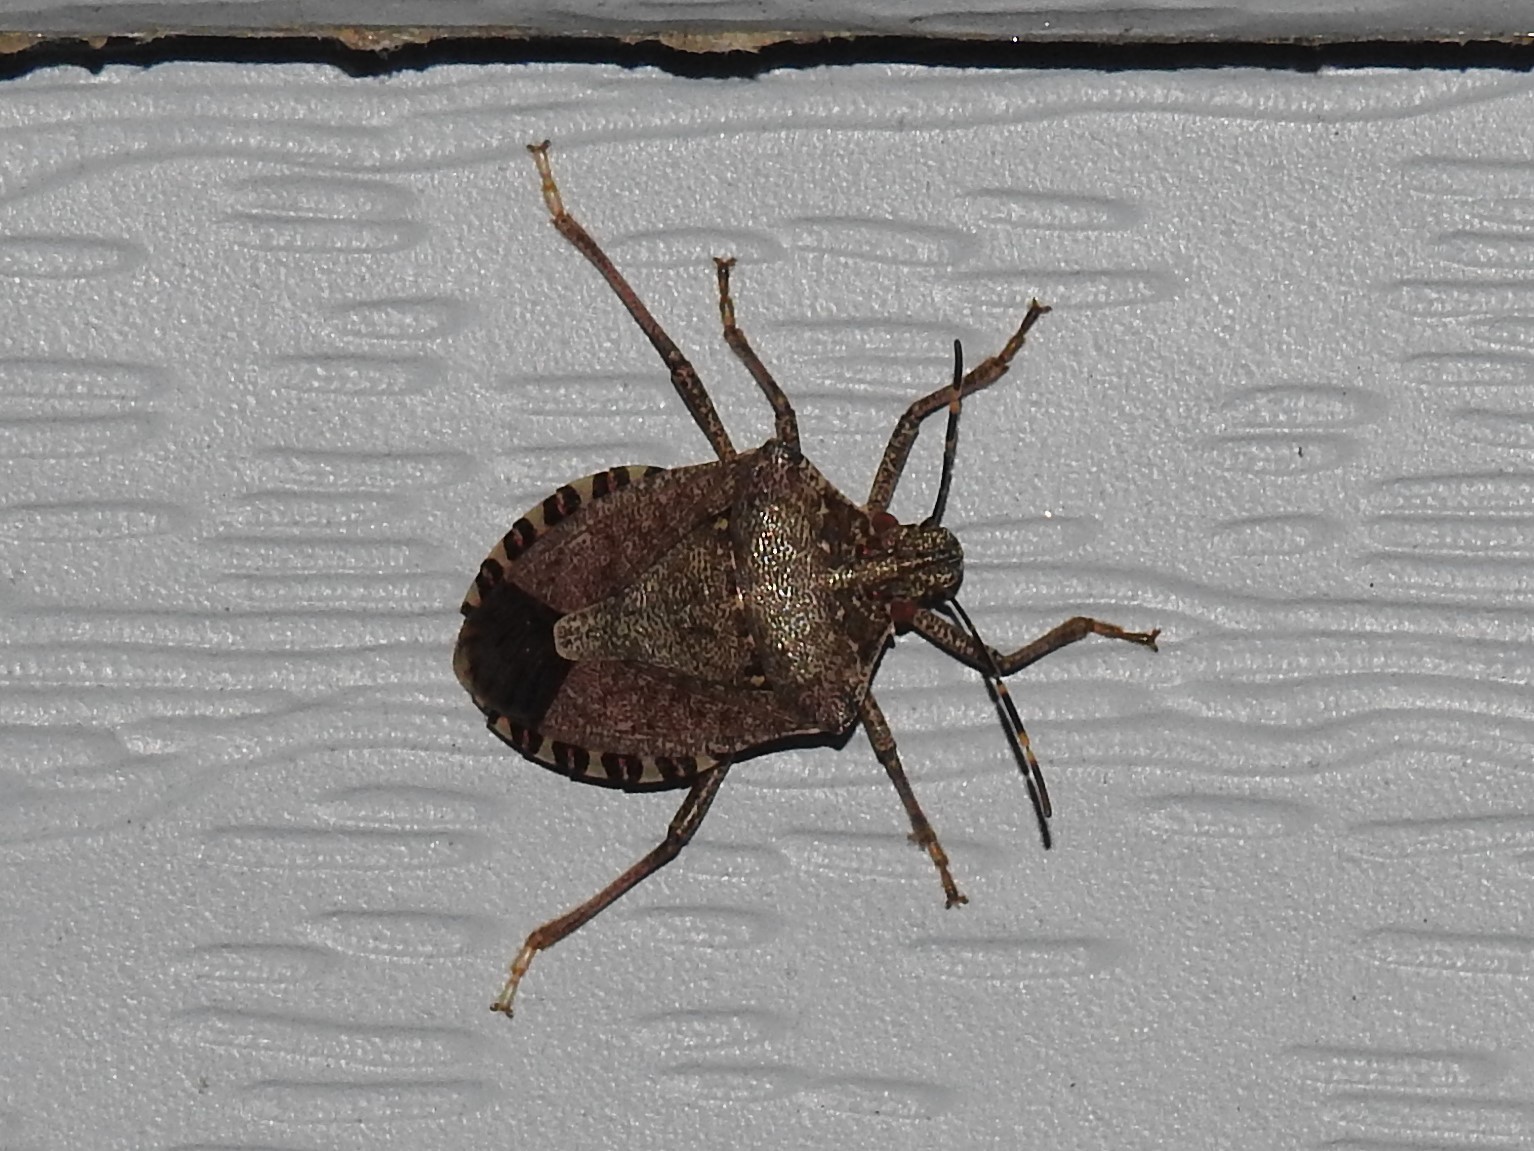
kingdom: Animalia
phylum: Arthropoda
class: Insecta
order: Hemiptera
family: Pentatomidae
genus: Halyomorpha
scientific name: Halyomorpha halys
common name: Brown marmorated stink bug
